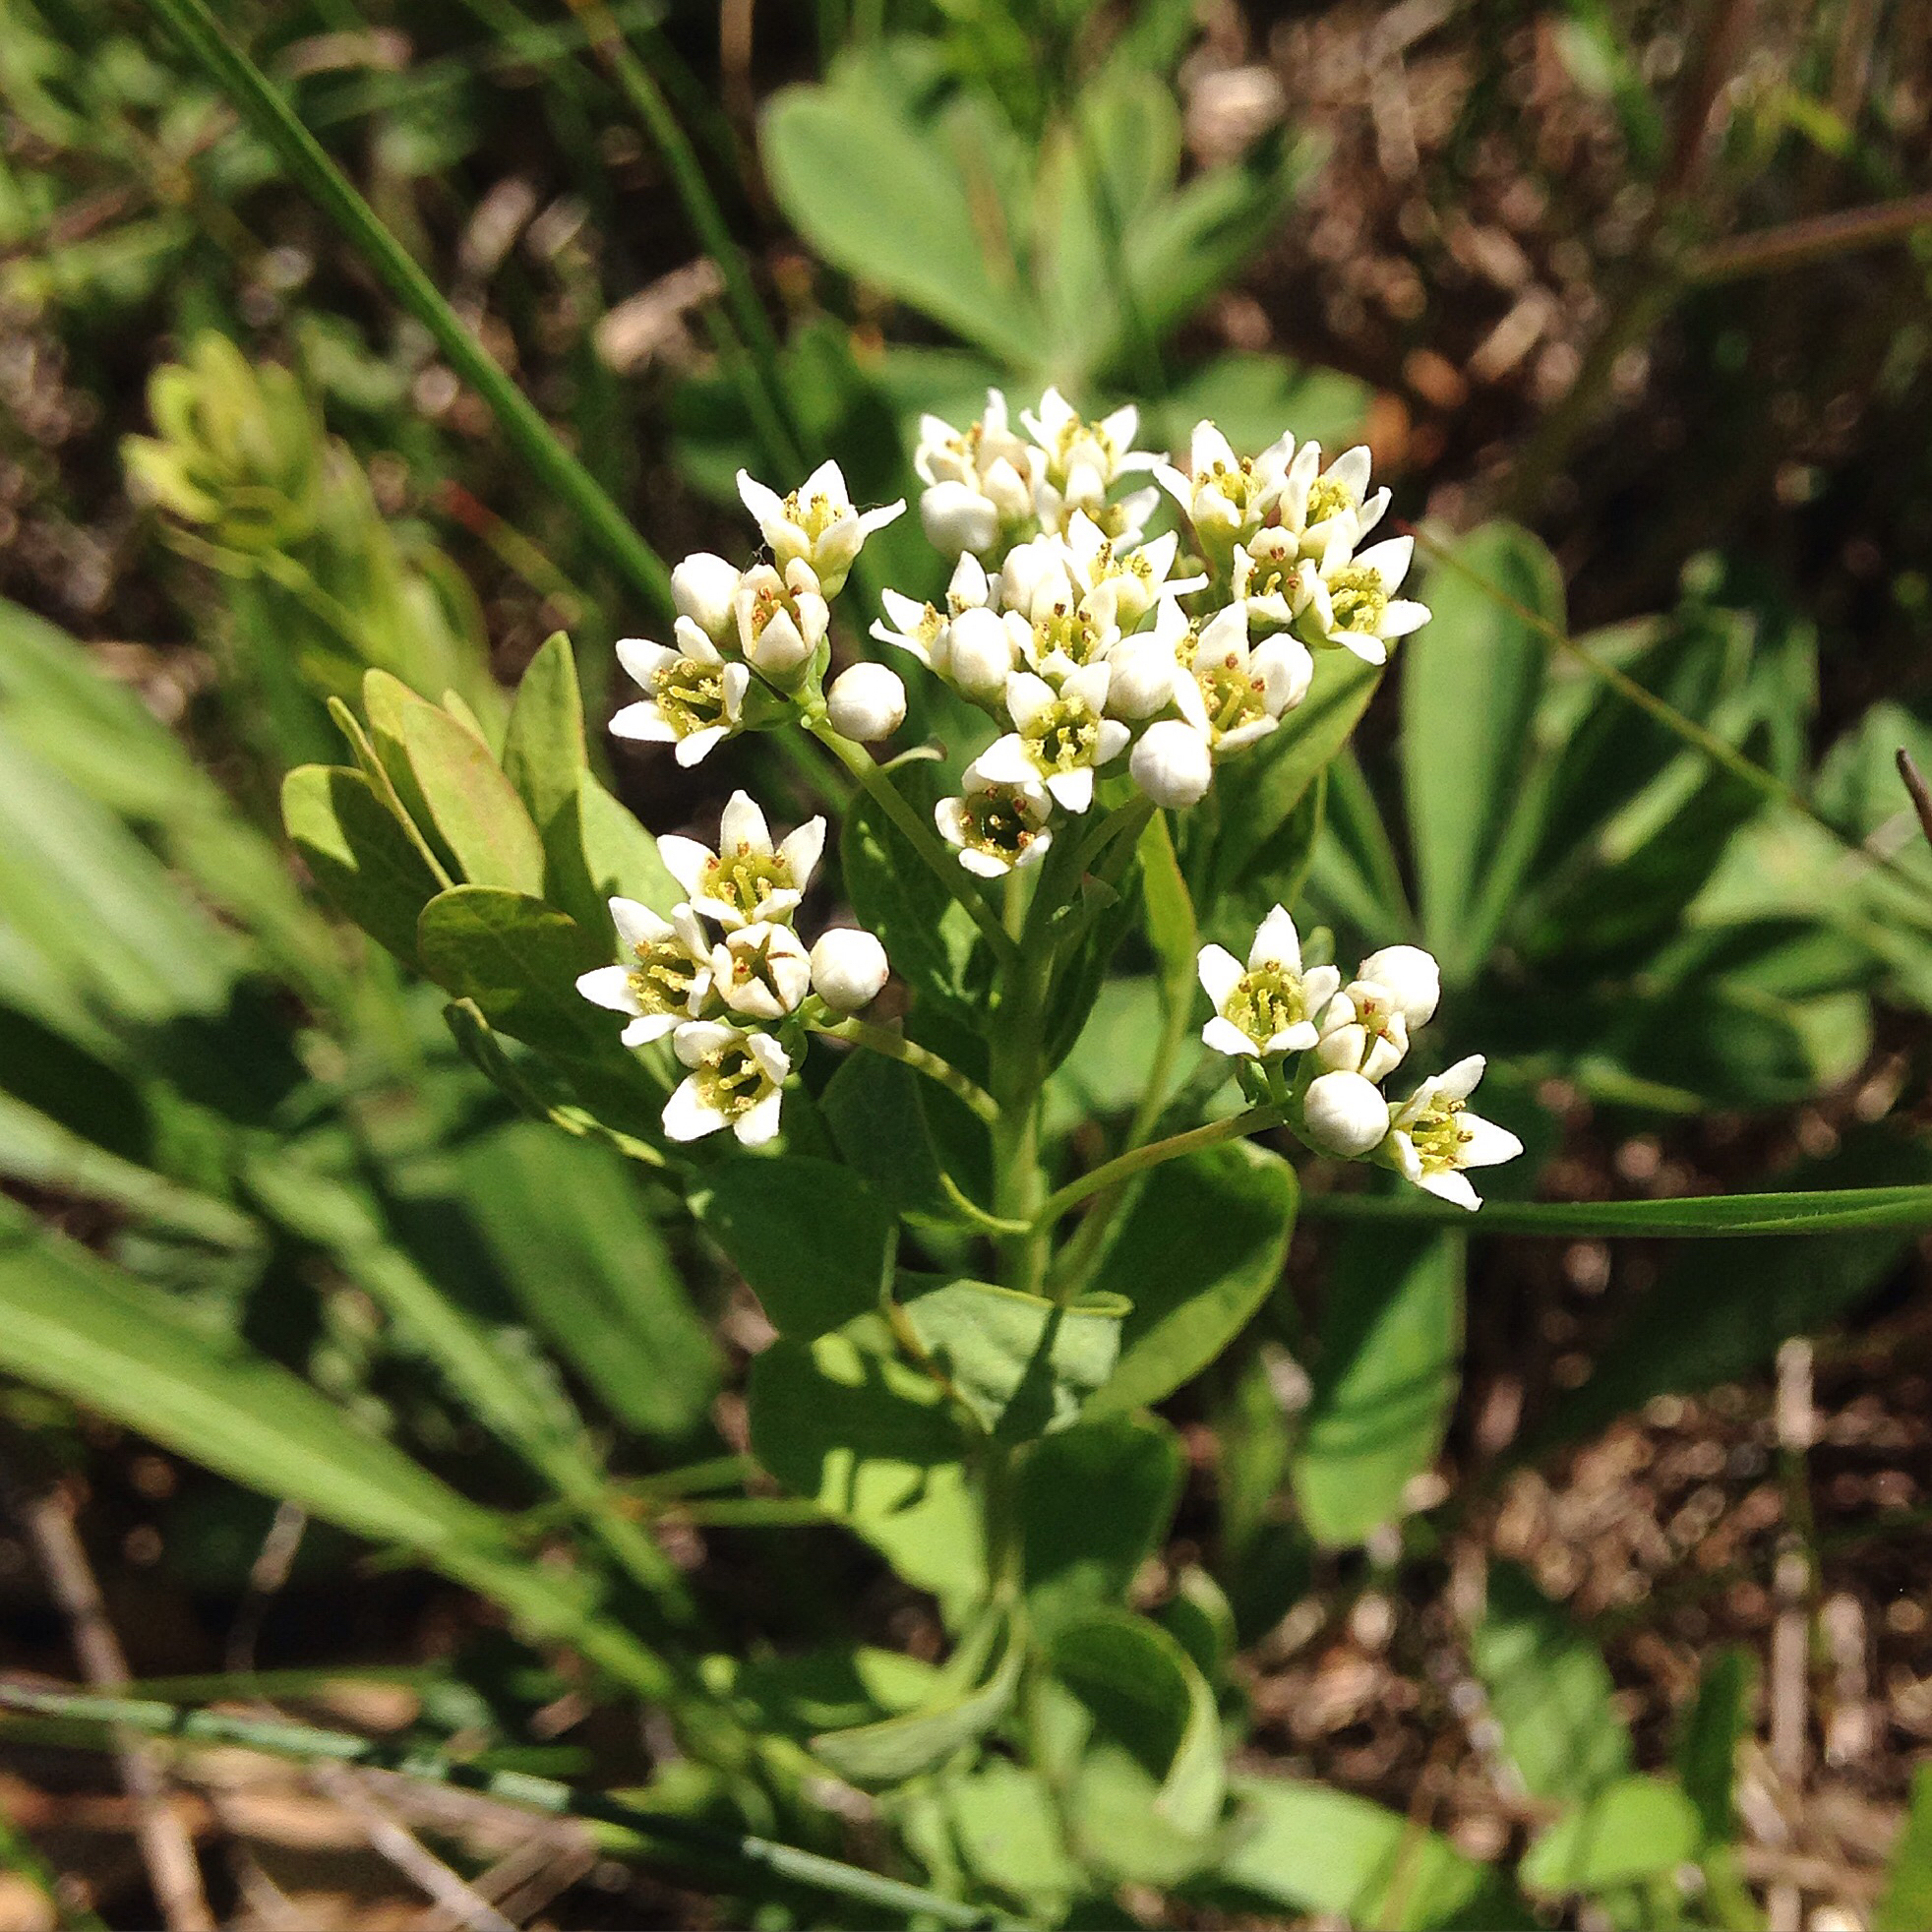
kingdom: Plantae
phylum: Tracheophyta
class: Magnoliopsida
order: Santalales
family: Comandraceae
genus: Comandra
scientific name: Comandra umbellata
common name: Bastard toadflax
